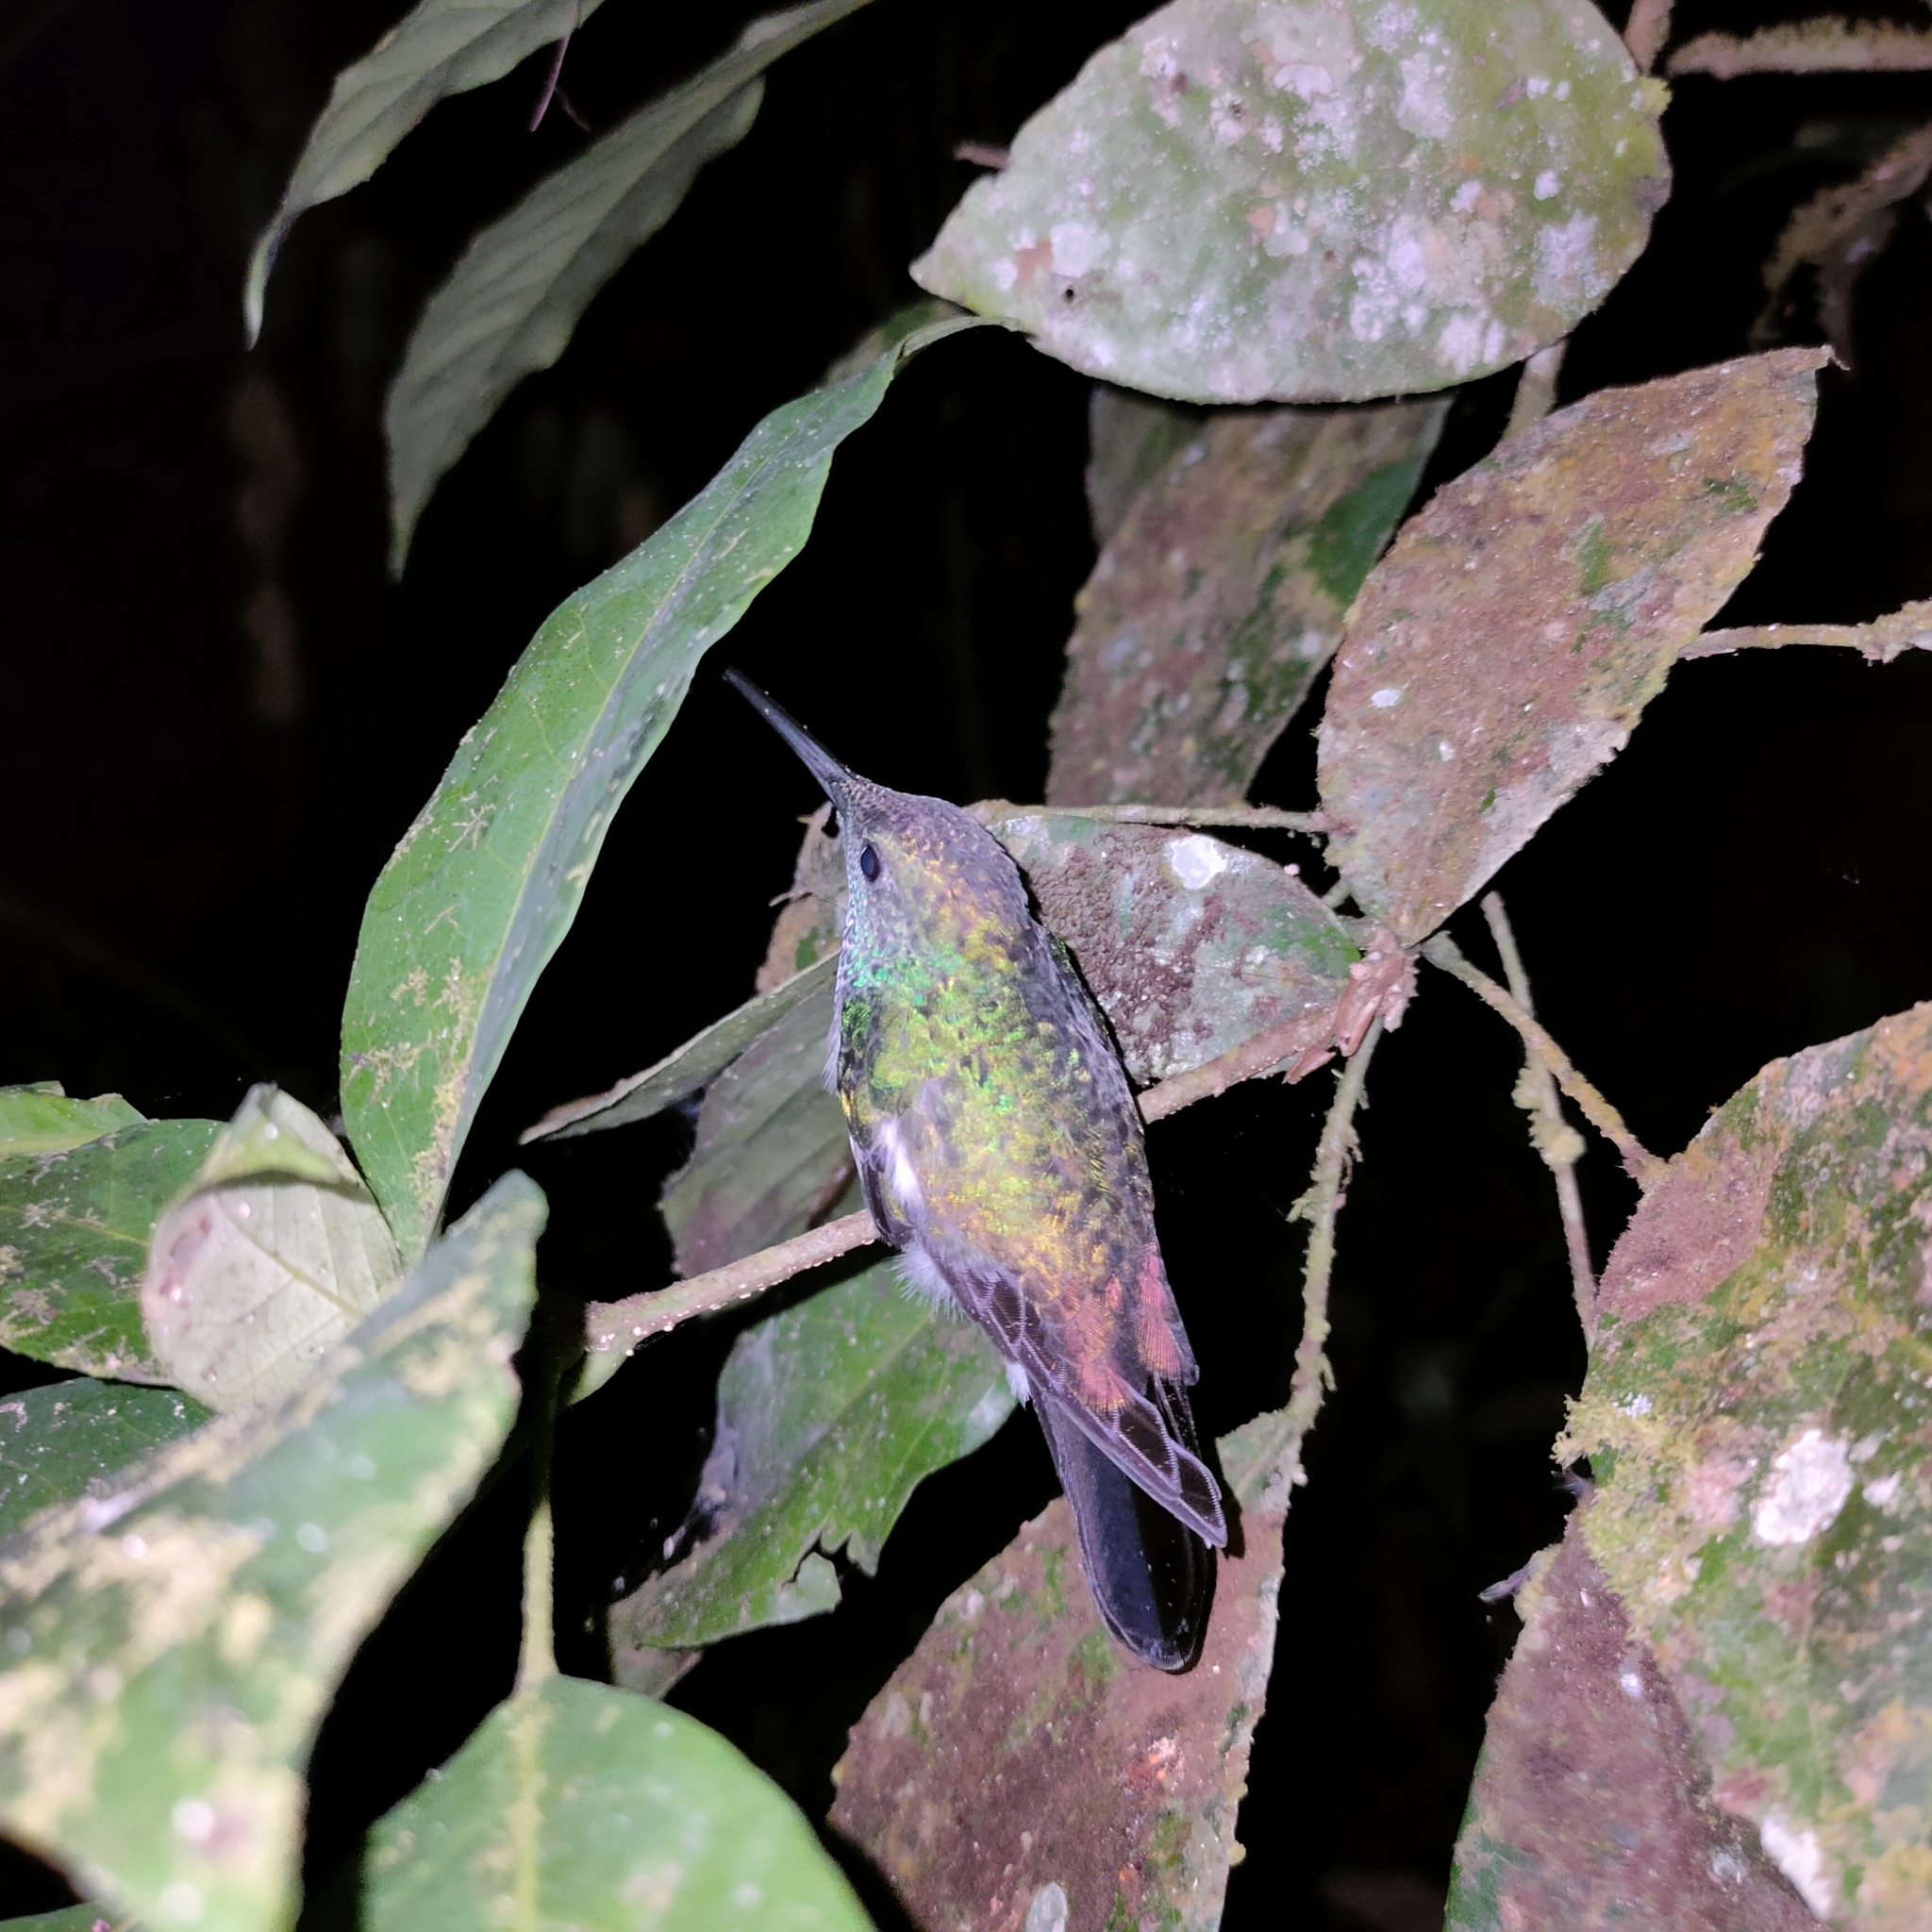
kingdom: Animalia
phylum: Chordata
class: Aves
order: Apodiformes
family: Trochilidae
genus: Saucerottia
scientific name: Saucerottia edward
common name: Snowy-bellied hummingbird
